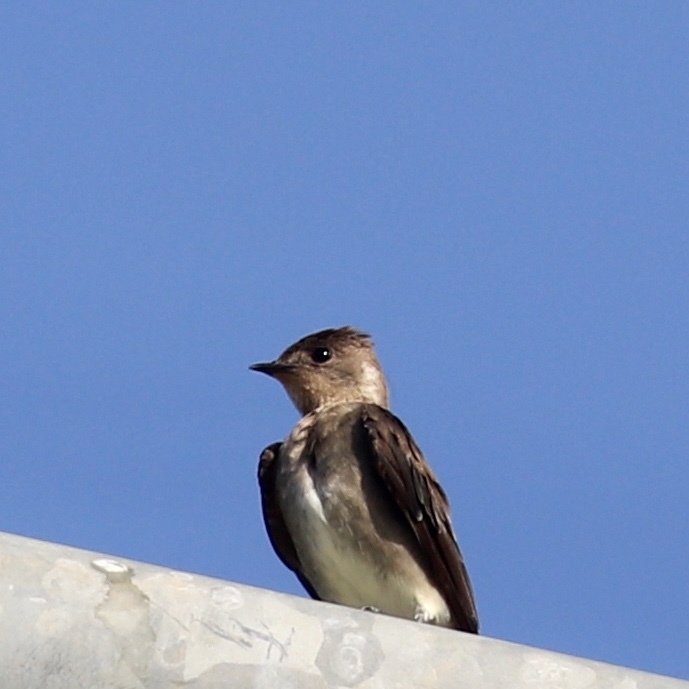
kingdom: Animalia
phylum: Chordata
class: Aves
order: Passeriformes
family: Hirundinidae
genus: Stelgidopteryx
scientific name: Stelgidopteryx ruficollis
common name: Southern rough-winged swallow
